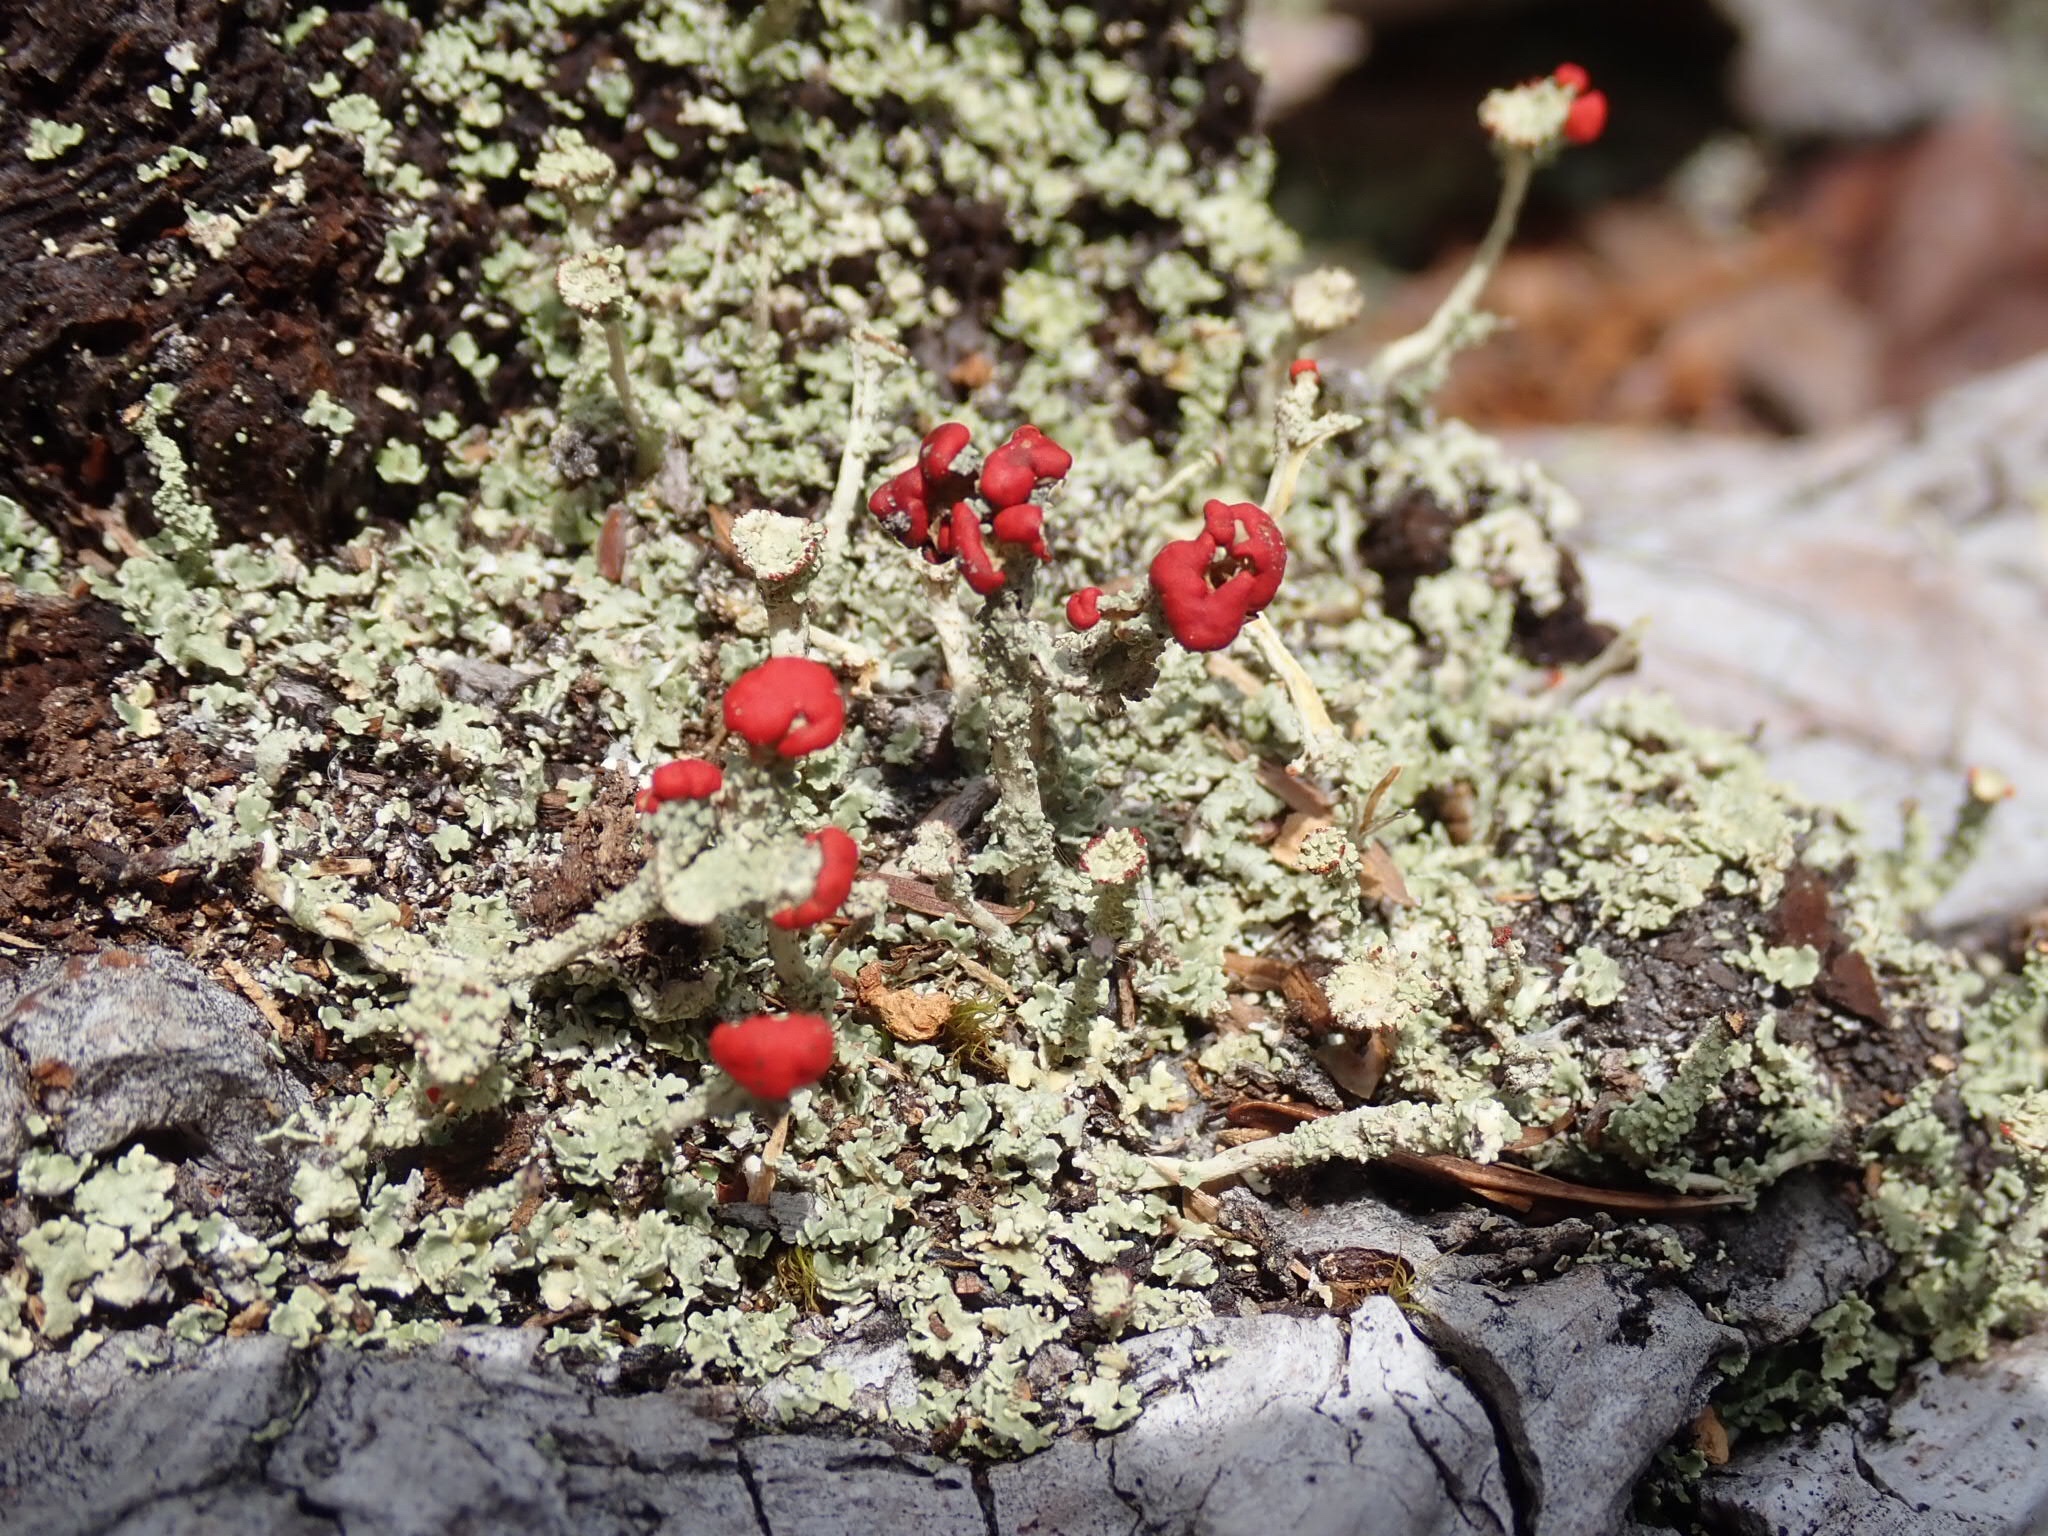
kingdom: Fungi
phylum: Ascomycota
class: Lecanoromycetes
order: Lecanorales
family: Cladoniaceae
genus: Cladonia
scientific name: Cladonia bellidiflora
